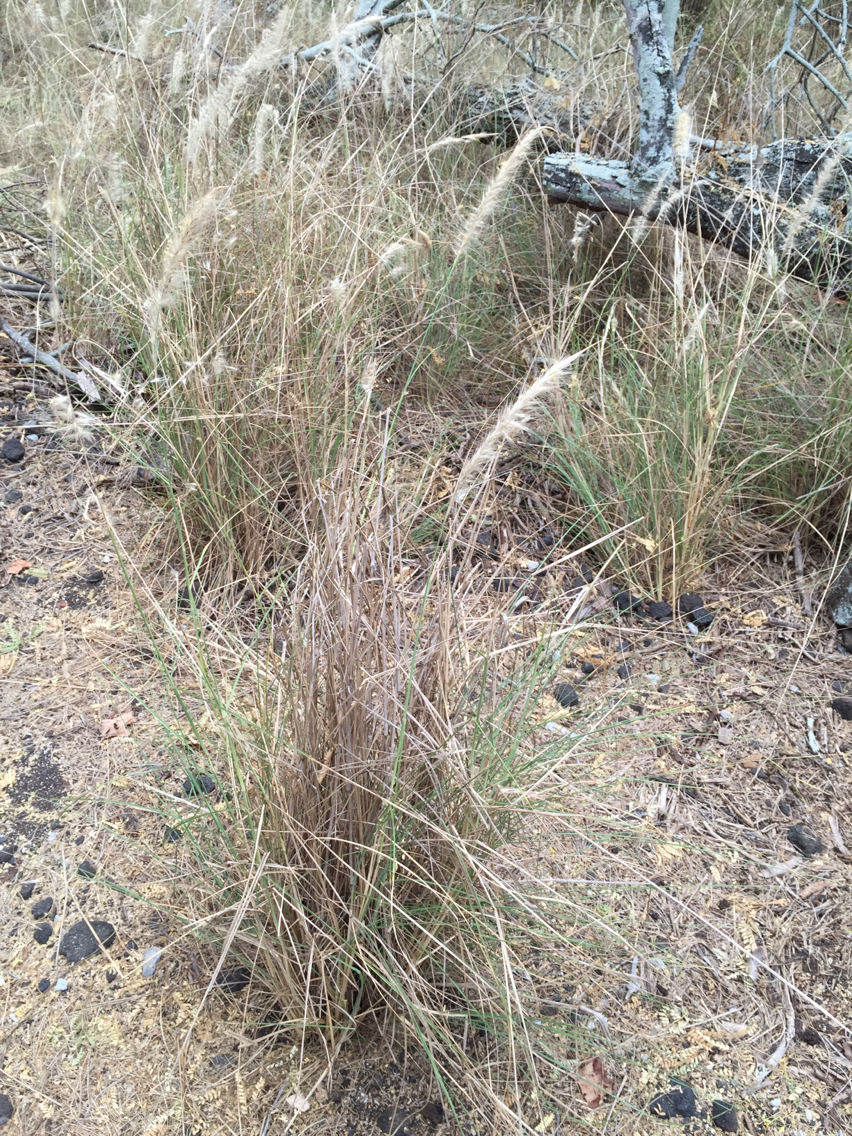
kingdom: Plantae
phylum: Tracheophyta
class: Liliopsida
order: Poales
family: Poaceae
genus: Cenchrus
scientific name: Cenchrus setaceus
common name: Crimson fountaingrass
